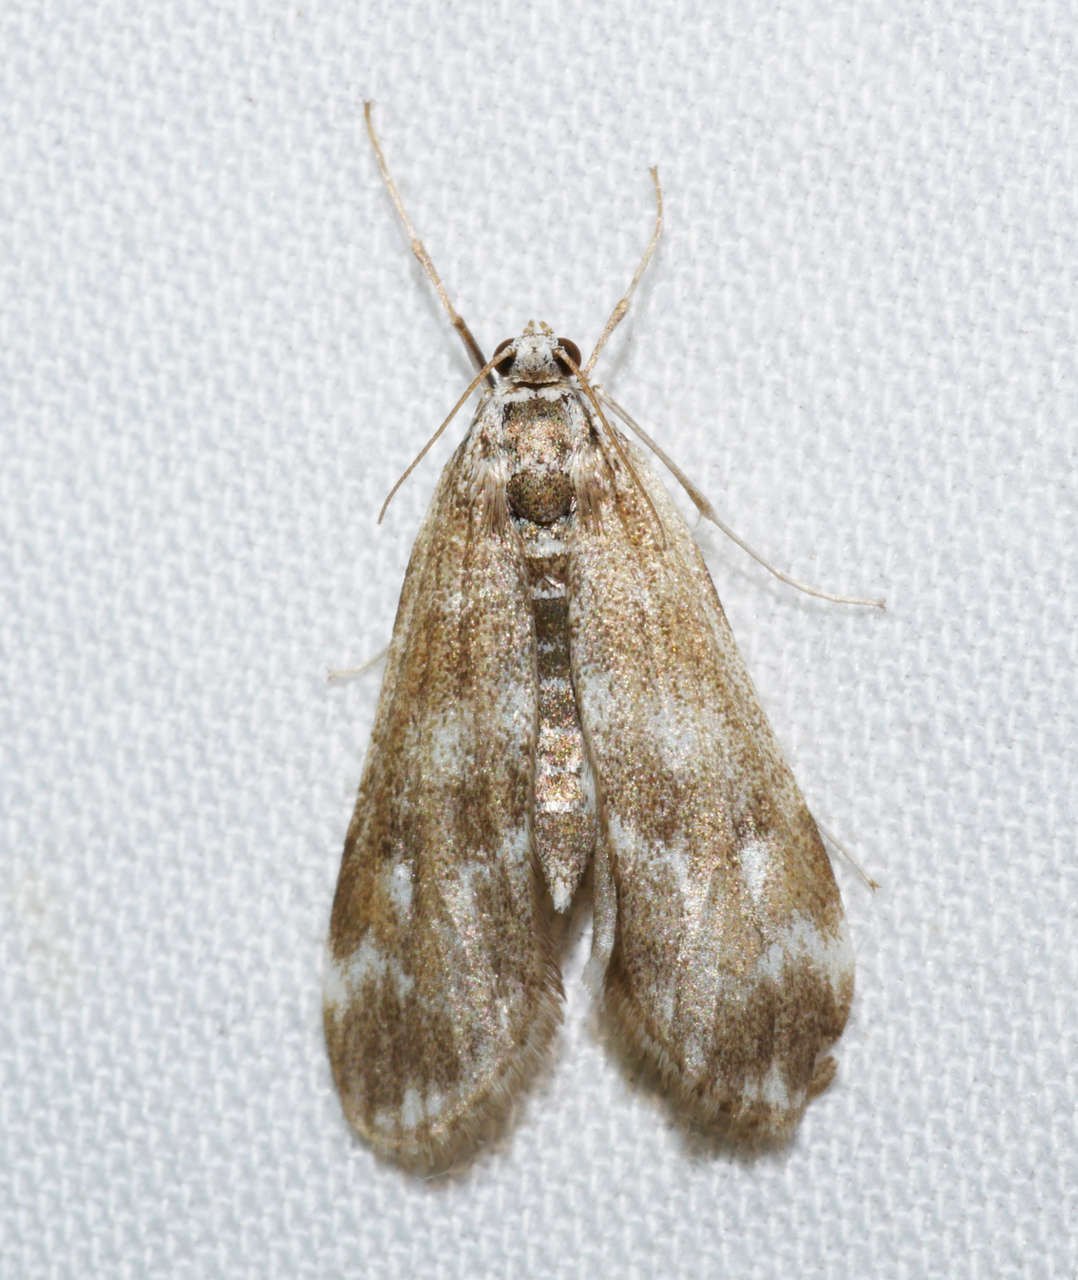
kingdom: Animalia
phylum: Arthropoda
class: Insecta
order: Lepidoptera
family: Crambidae
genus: Hygraula
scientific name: Hygraula nitens
